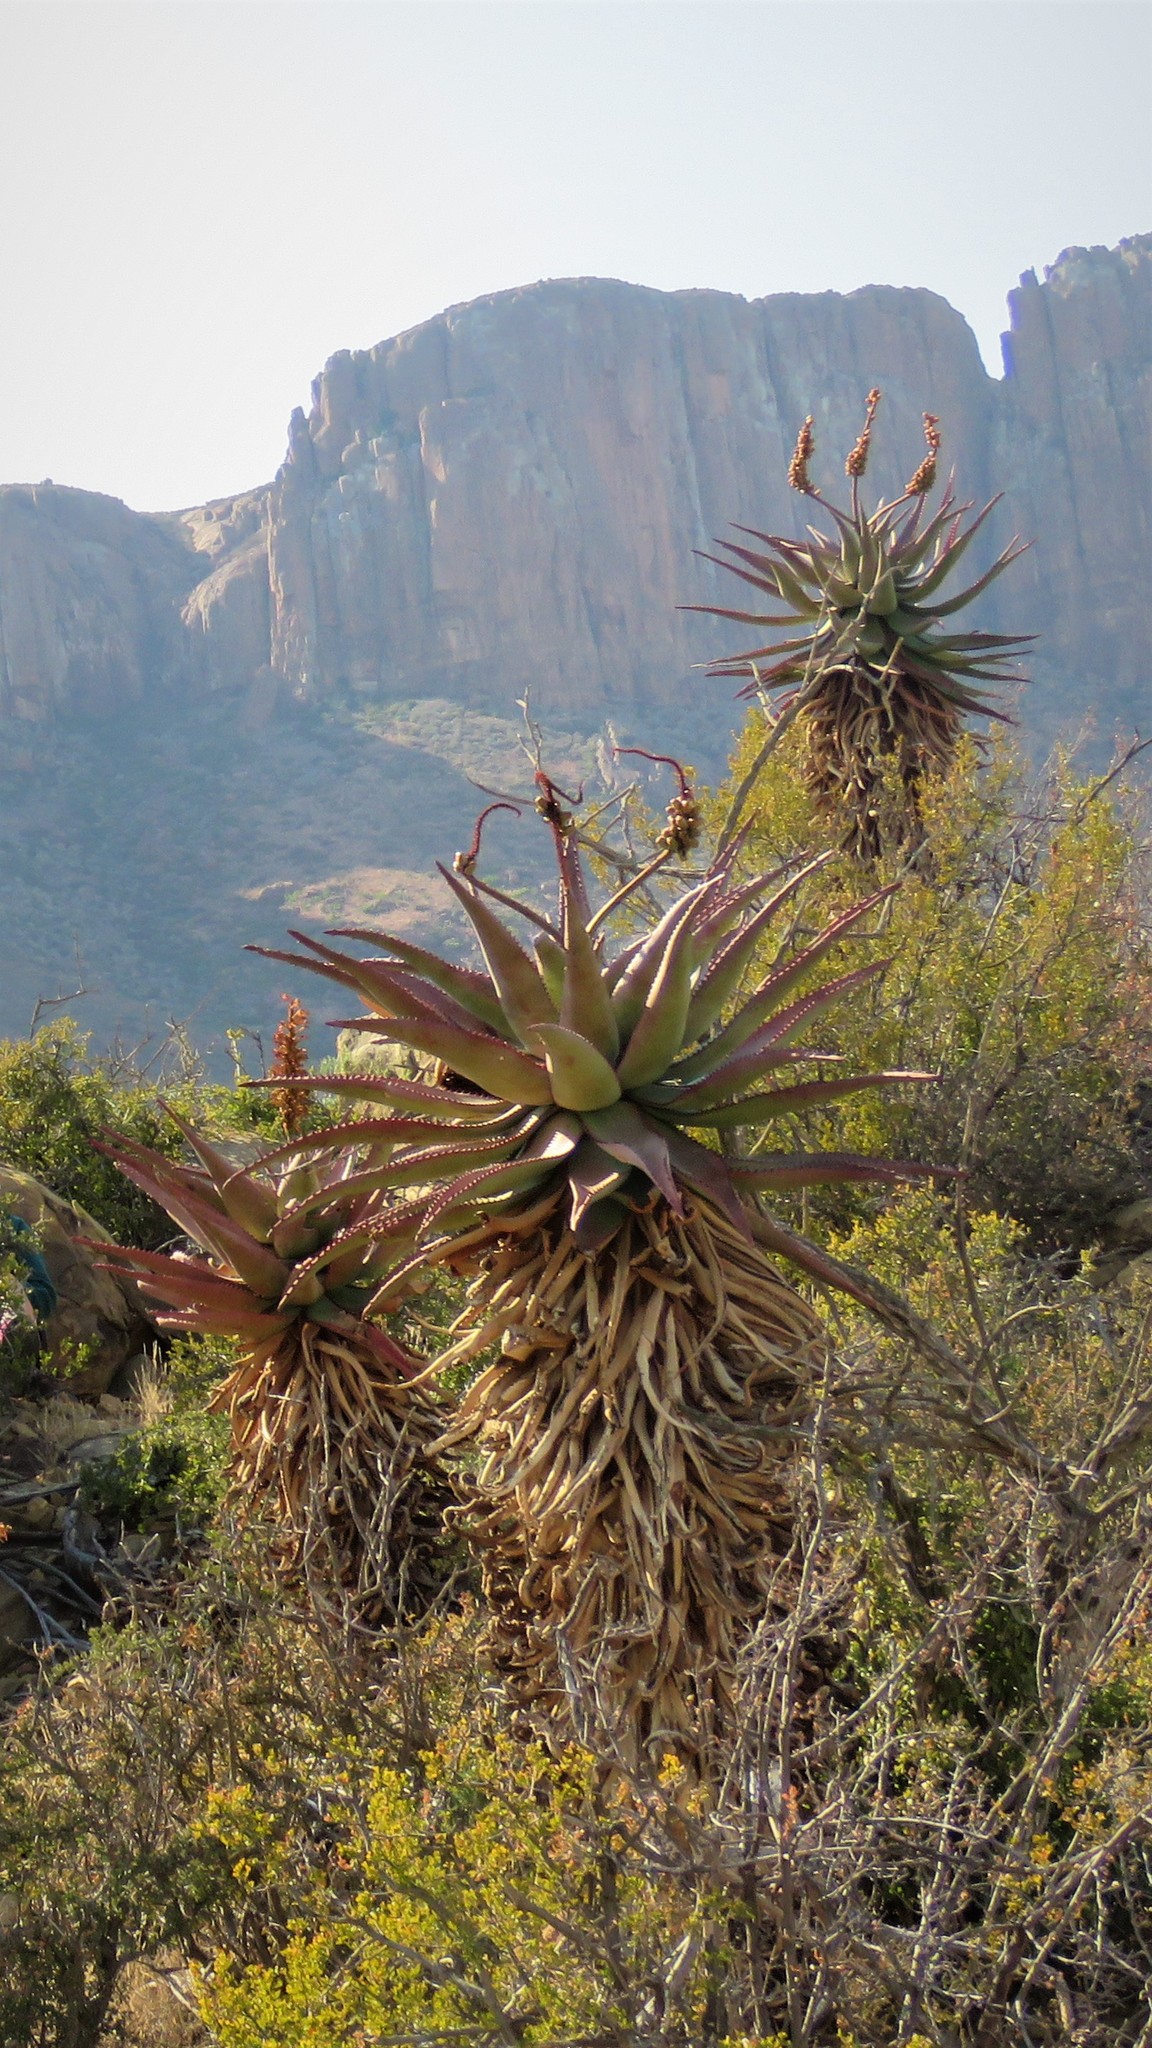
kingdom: Plantae
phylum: Tracheophyta
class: Liliopsida
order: Asparagales
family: Asphodelaceae
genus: Aloe
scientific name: Aloe ferox
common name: Bitter aloe
